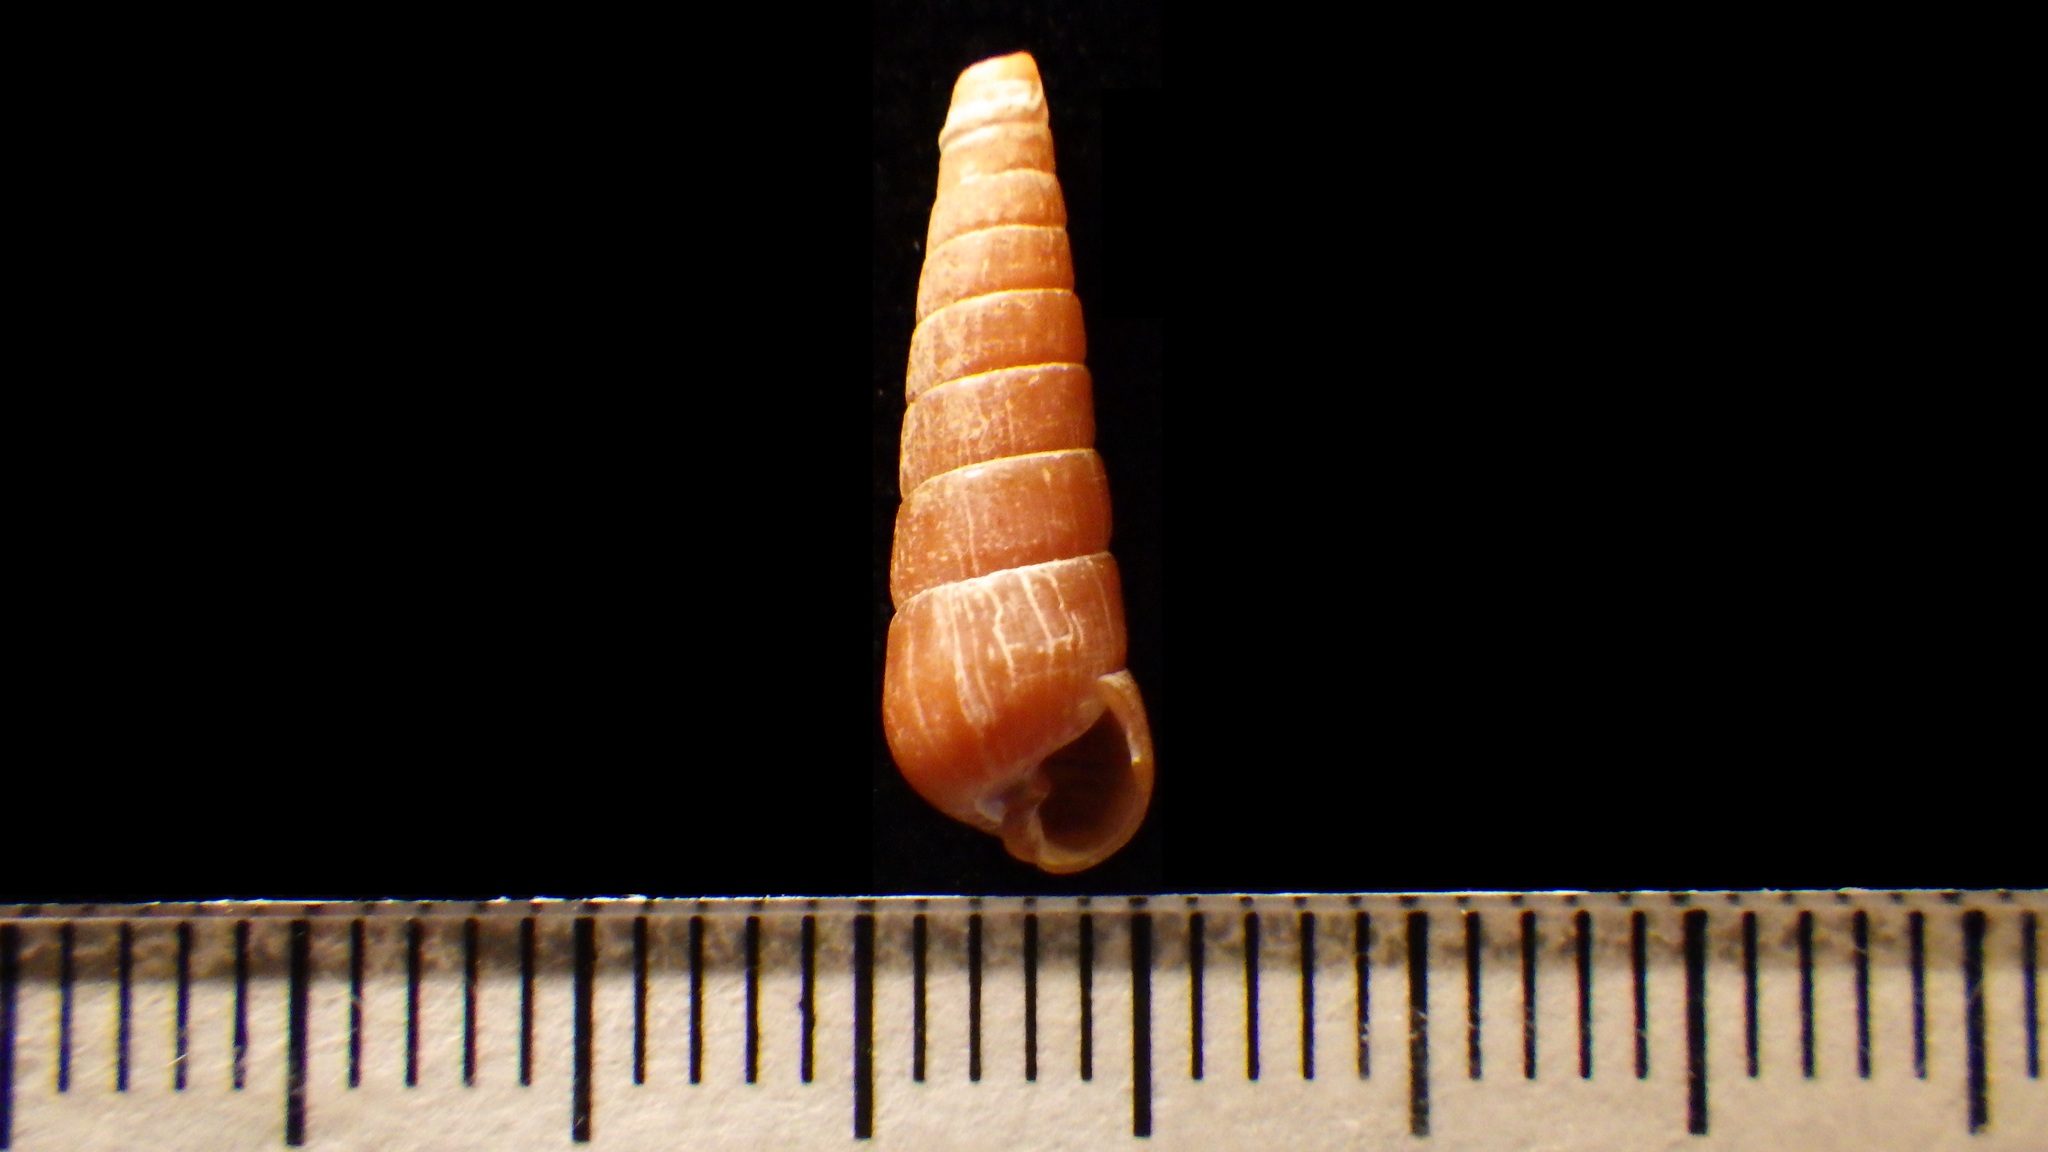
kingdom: Animalia
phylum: Mollusca
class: Gastropoda
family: Pyramidellidae
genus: Colsyrnola
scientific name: Colsyrnola brunnea
